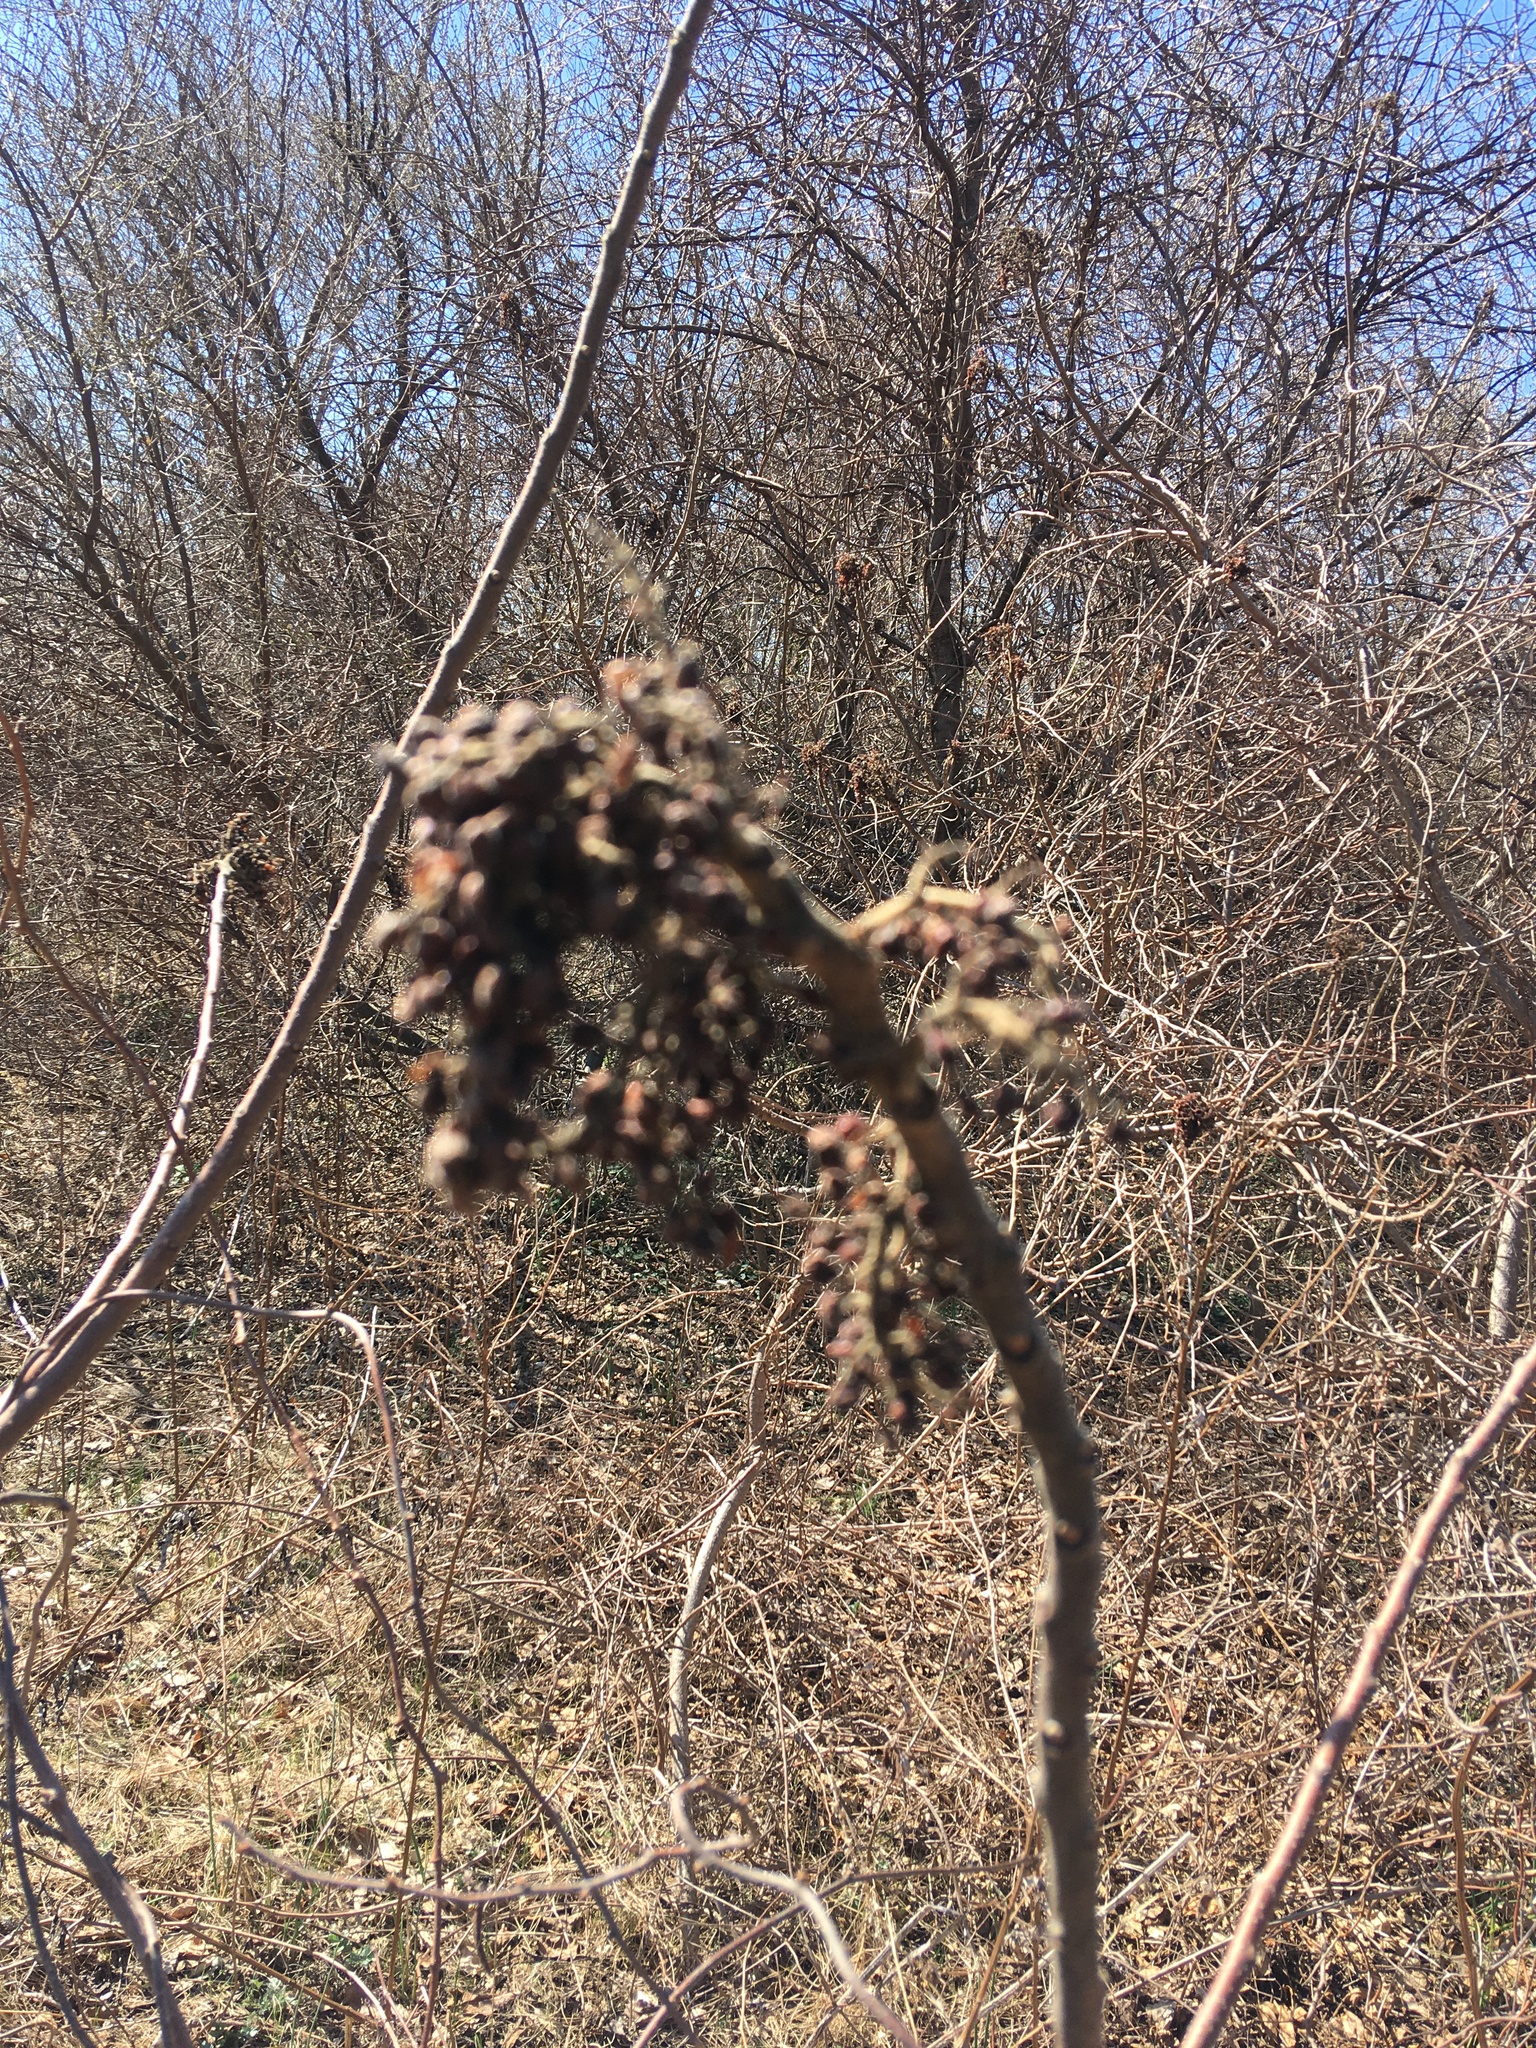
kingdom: Plantae
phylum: Tracheophyta
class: Magnoliopsida
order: Sapindales
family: Anacardiaceae
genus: Rhus
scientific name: Rhus copallina
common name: Shining sumac
